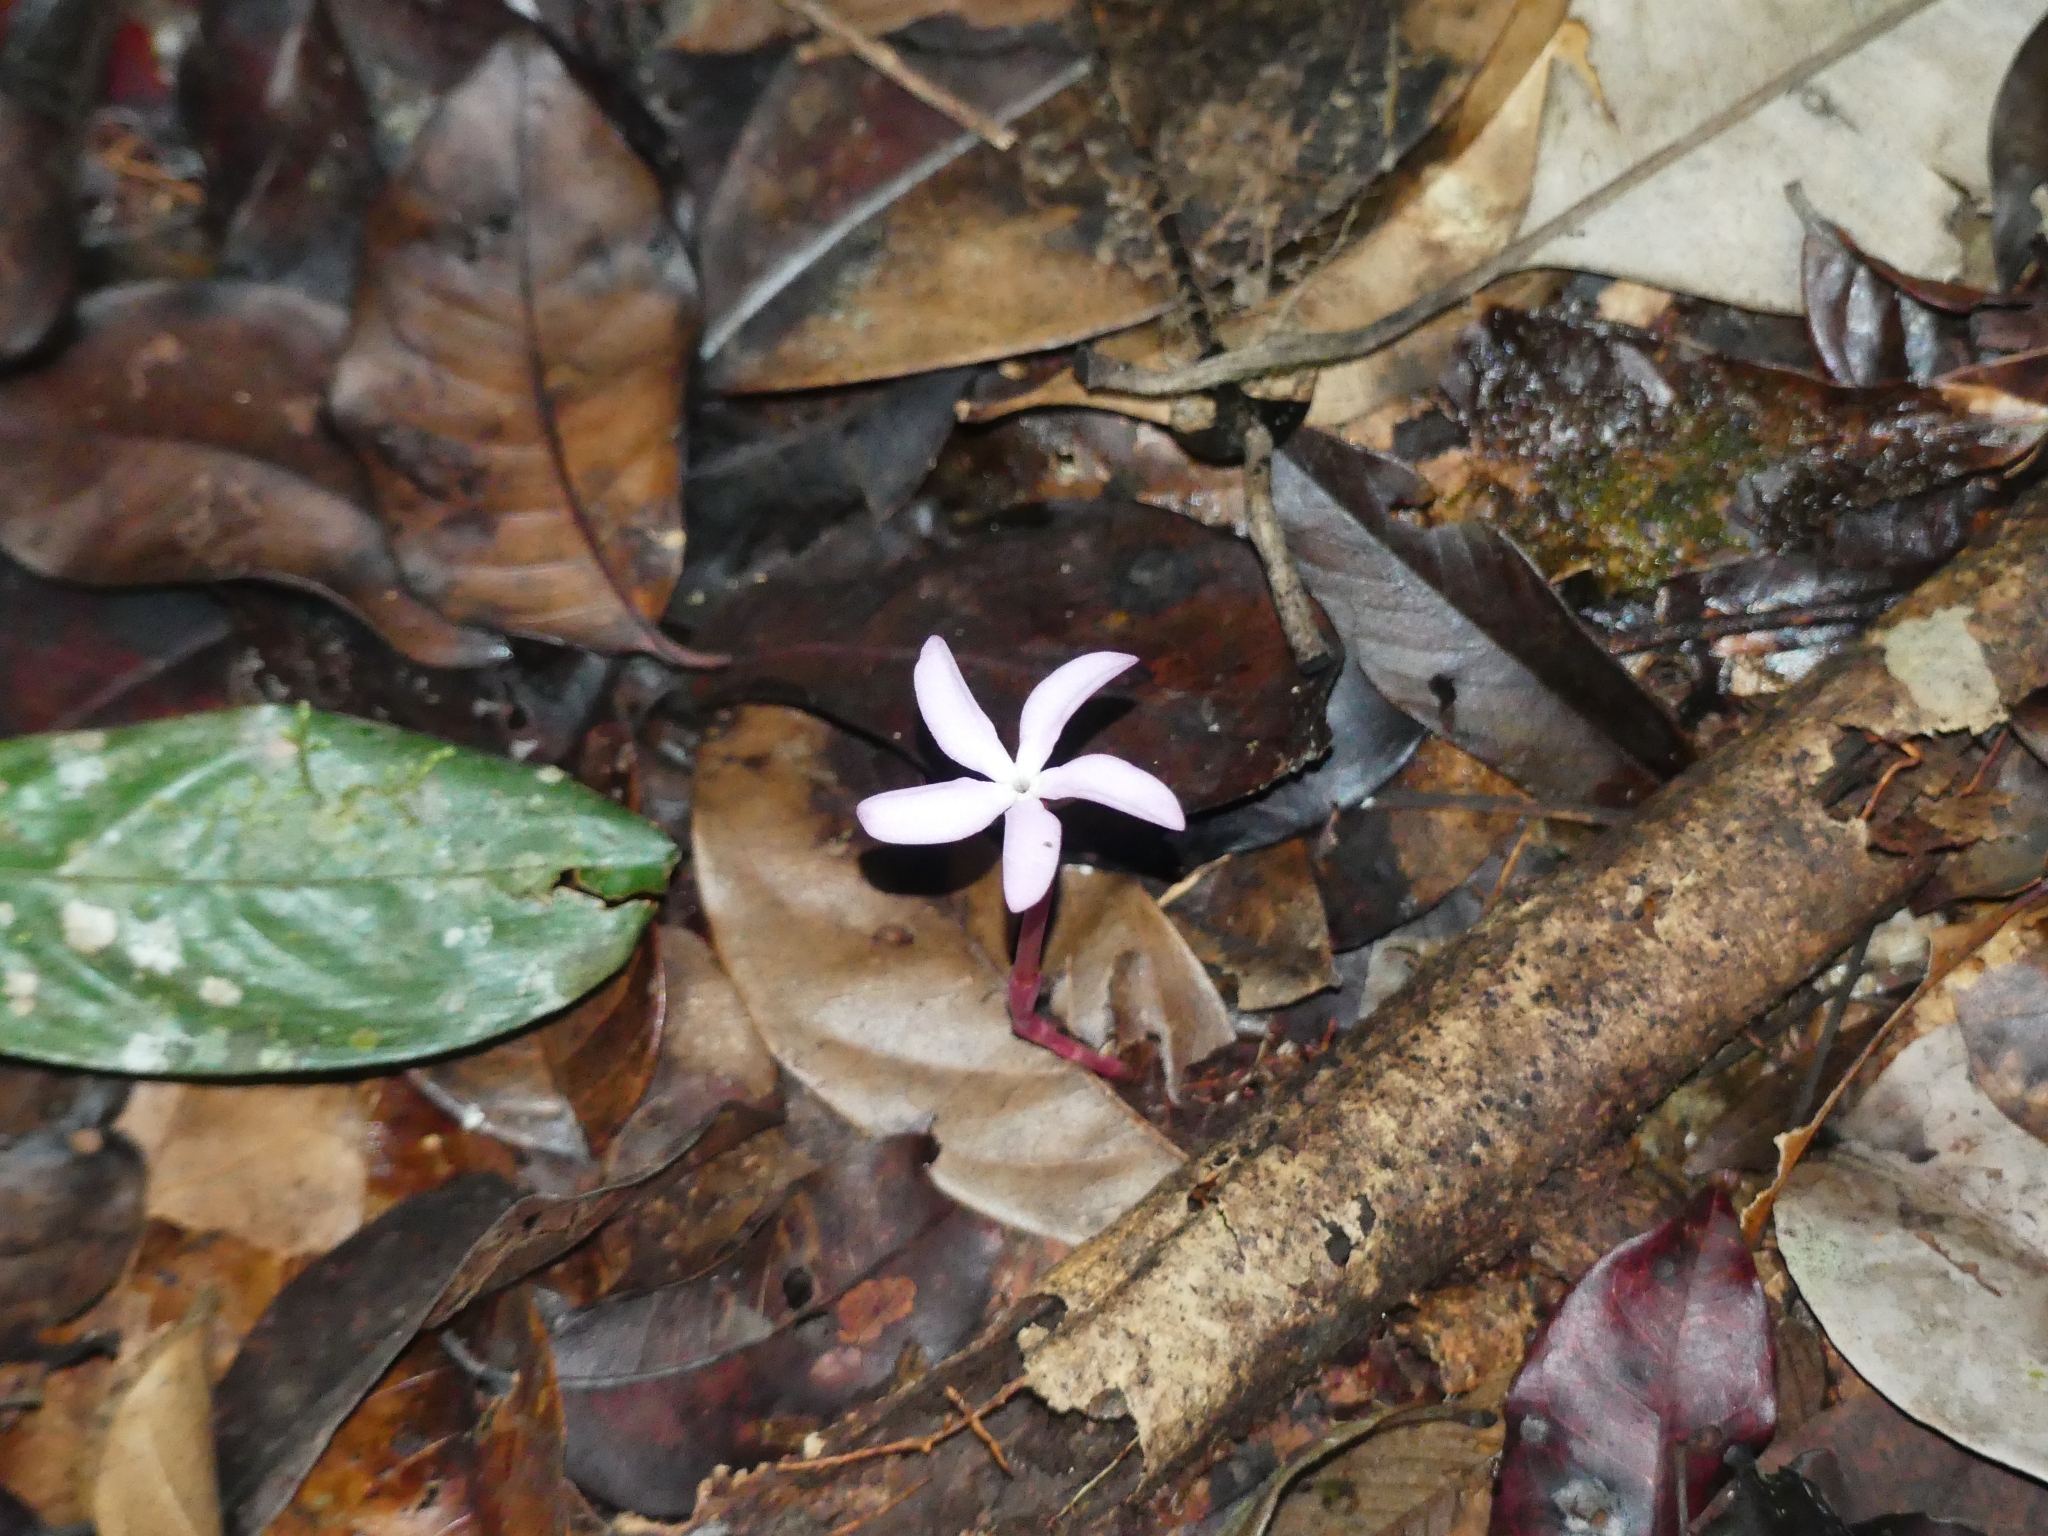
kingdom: Plantae
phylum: Tracheophyta
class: Magnoliopsida
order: Gentianales
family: Gentianaceae
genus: Voyria
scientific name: Voyria rosea
